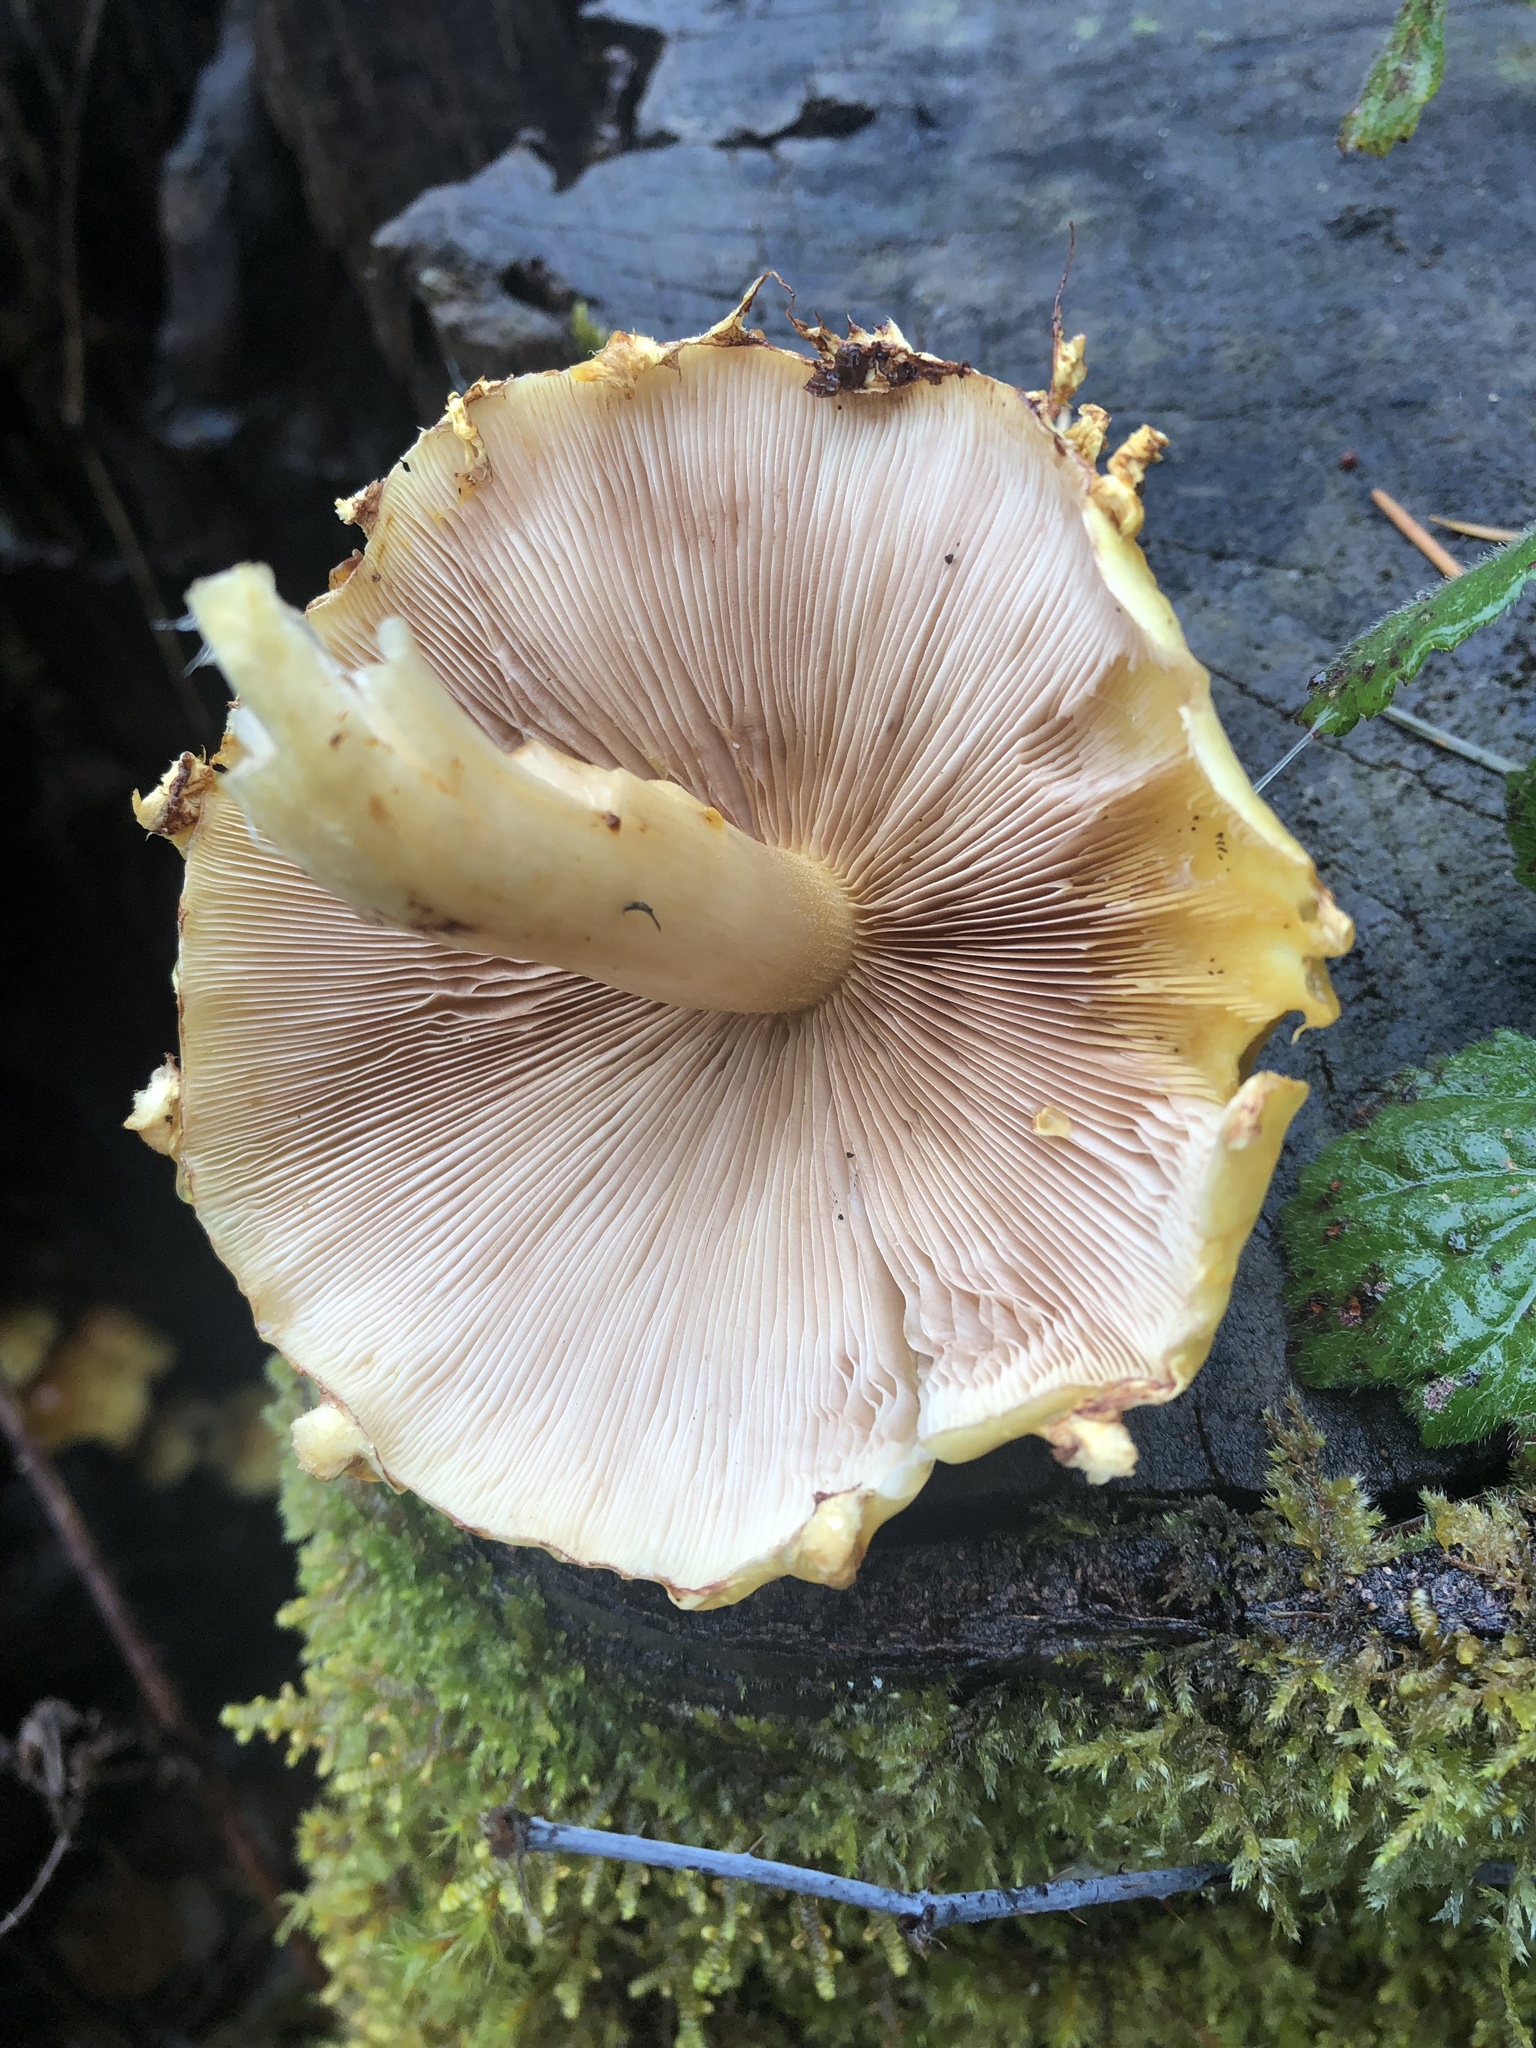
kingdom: Fungi
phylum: Basidiomycota
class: Agaricomycetes
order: Agaricales
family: Strophariaceae
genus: Pholiota
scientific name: Pholiota aurivella
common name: Golden scalycap
